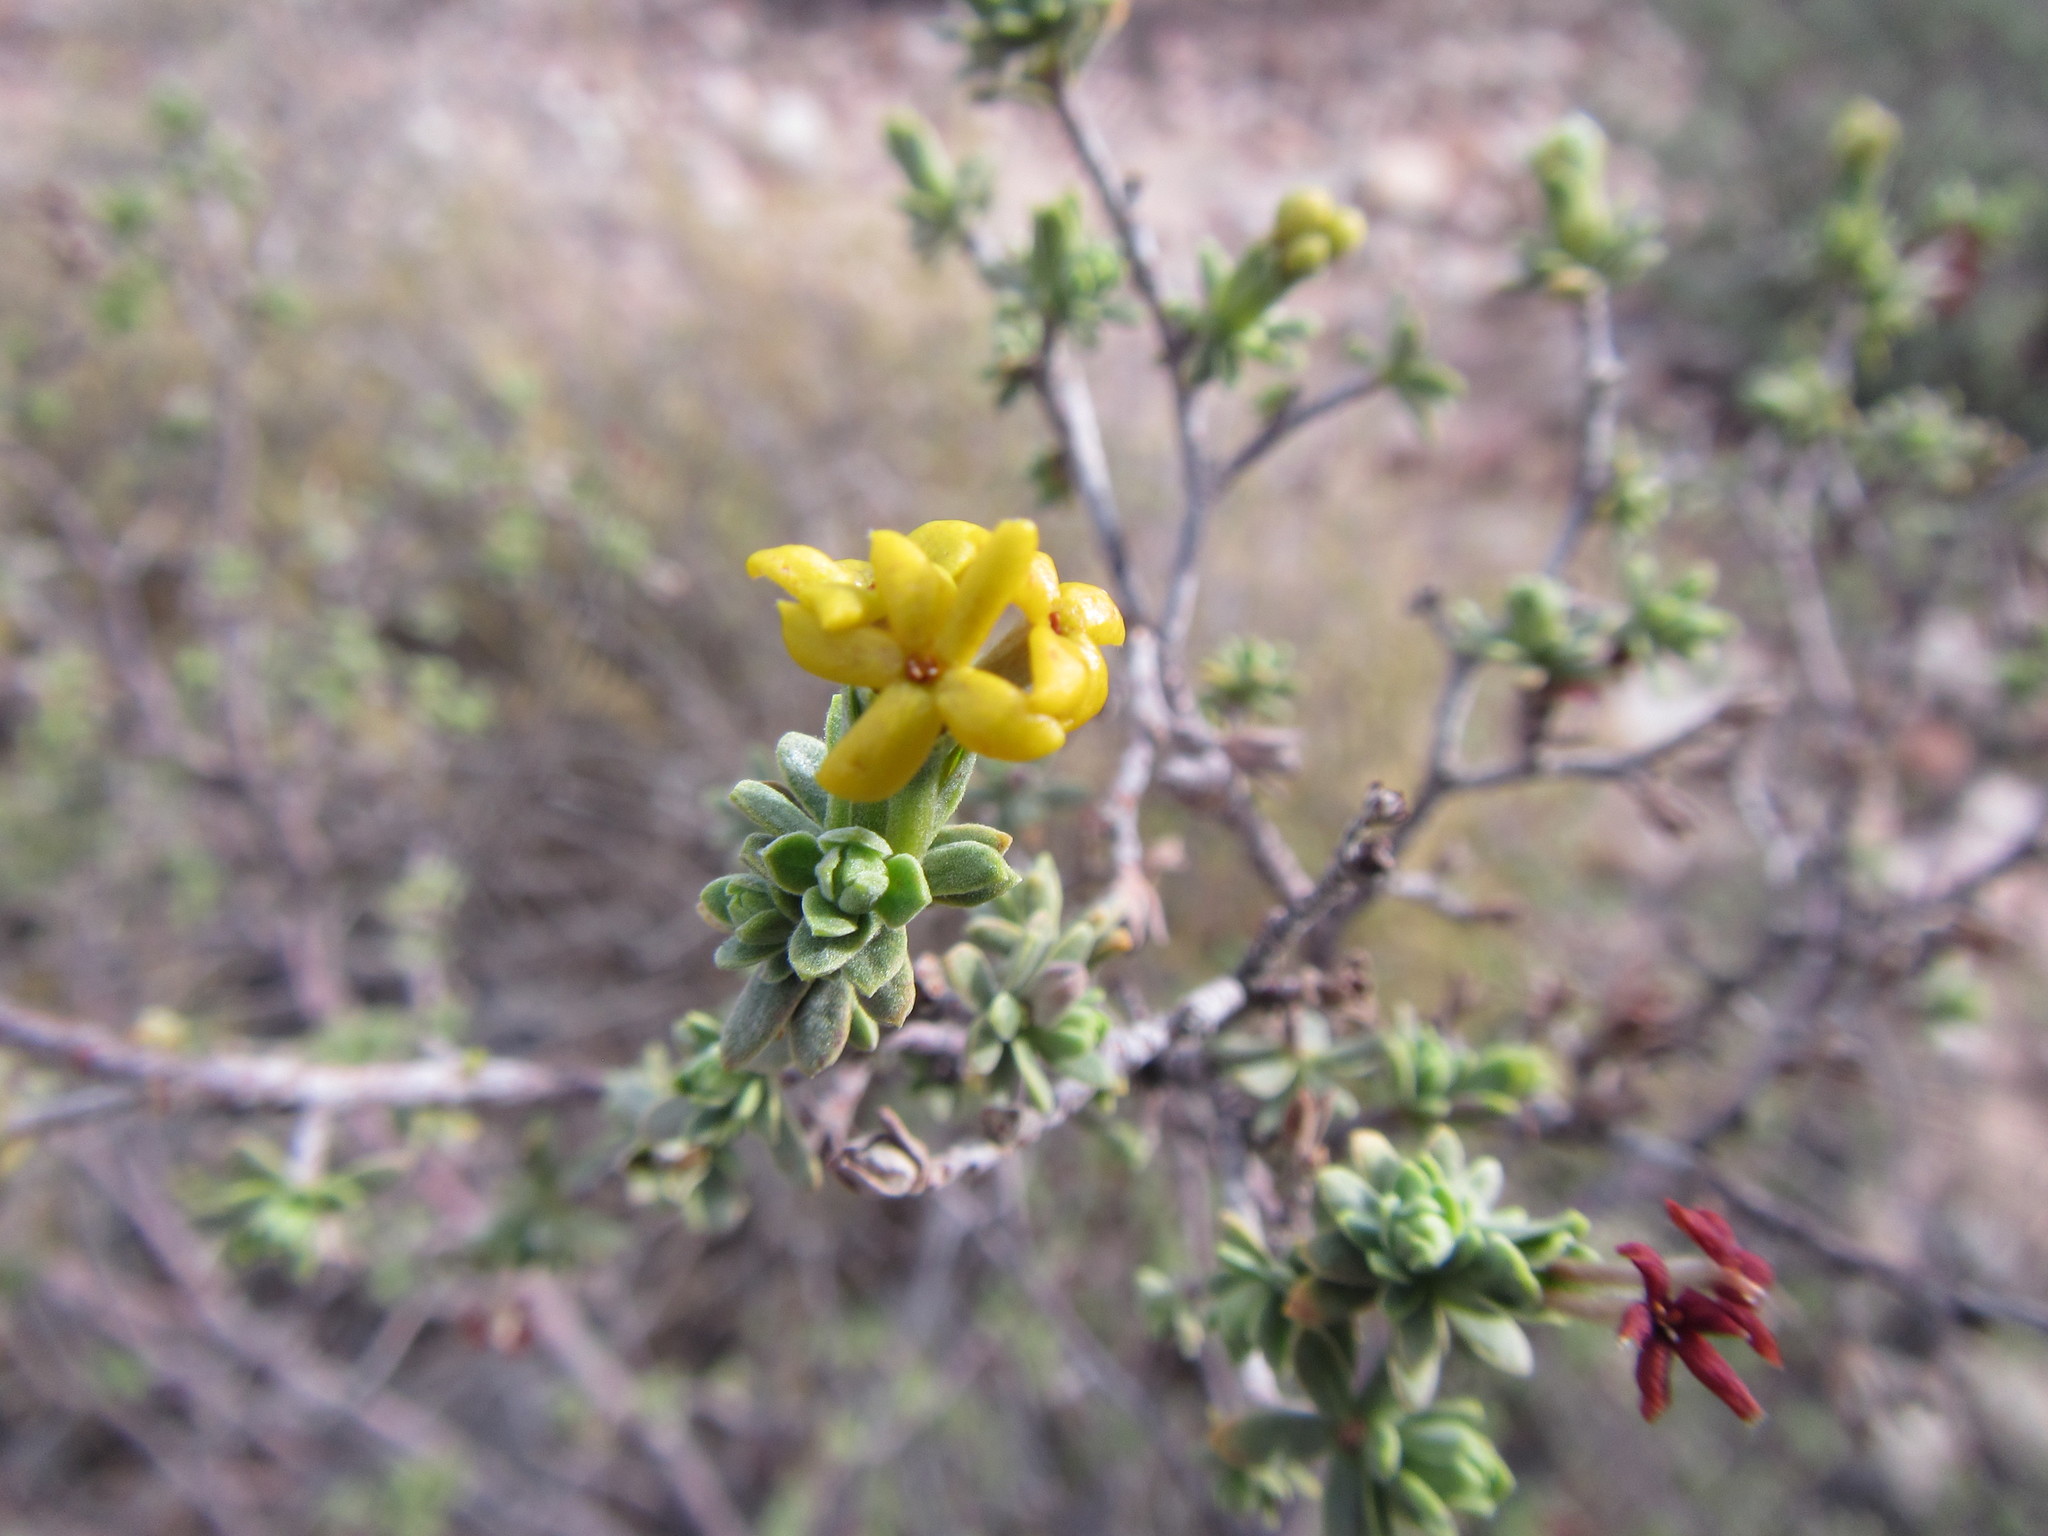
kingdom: Plantae
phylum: Tracheophyta
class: Magnoliopsida
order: Malvales
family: Thymelaeaceae
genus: Gnidia
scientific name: Gnidia deserticola
